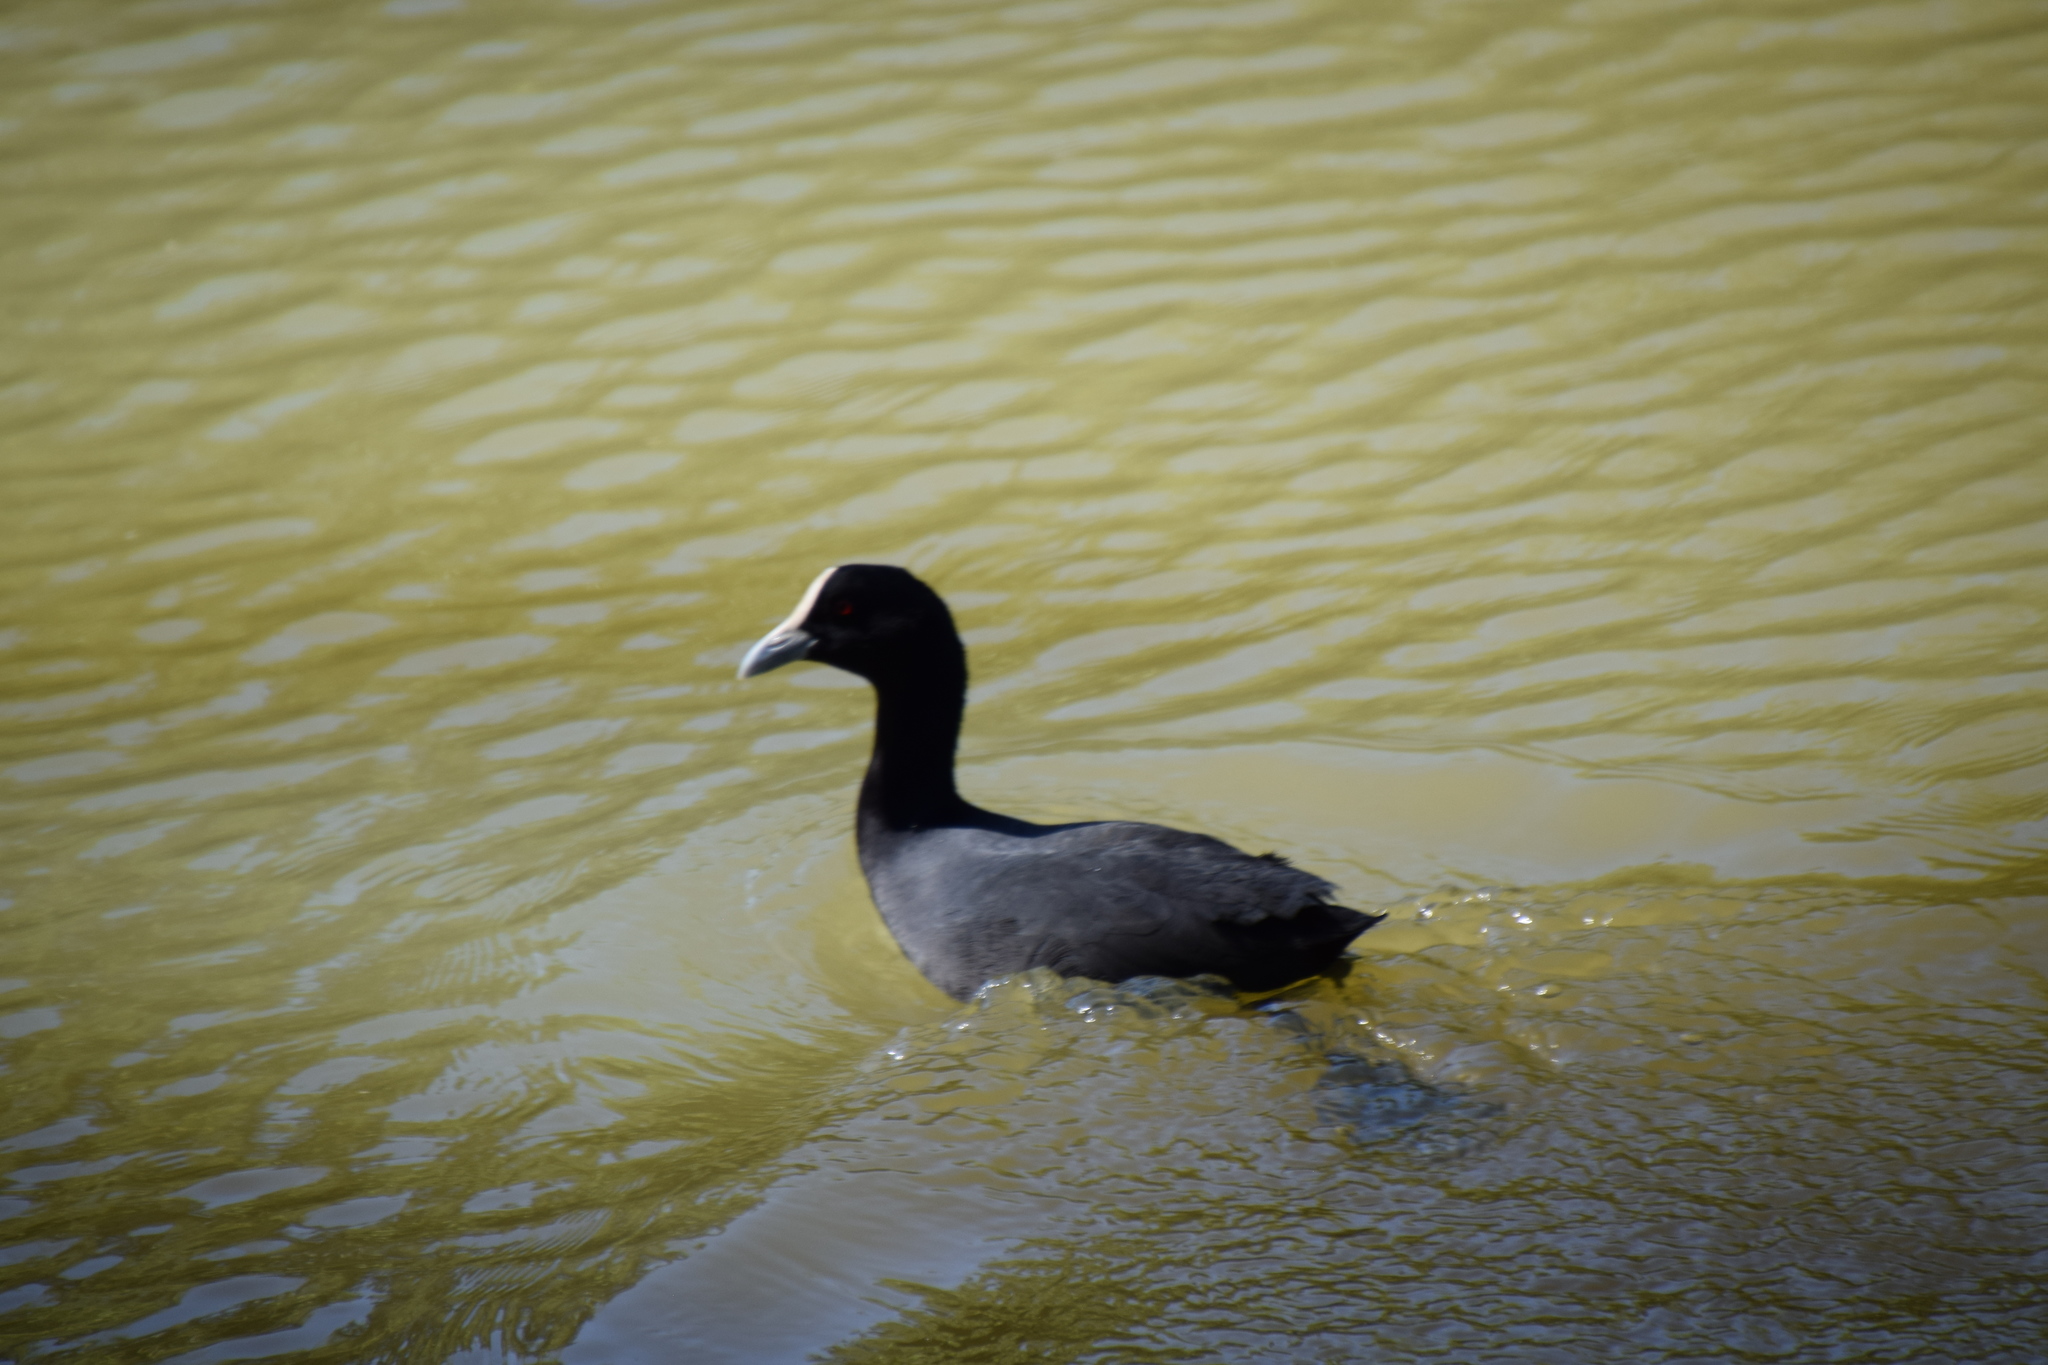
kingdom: Animalia
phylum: Chordata
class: Aves
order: Gruiformes
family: Rallidae
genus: Fulica
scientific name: Fulica atra
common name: Eurasian coot
